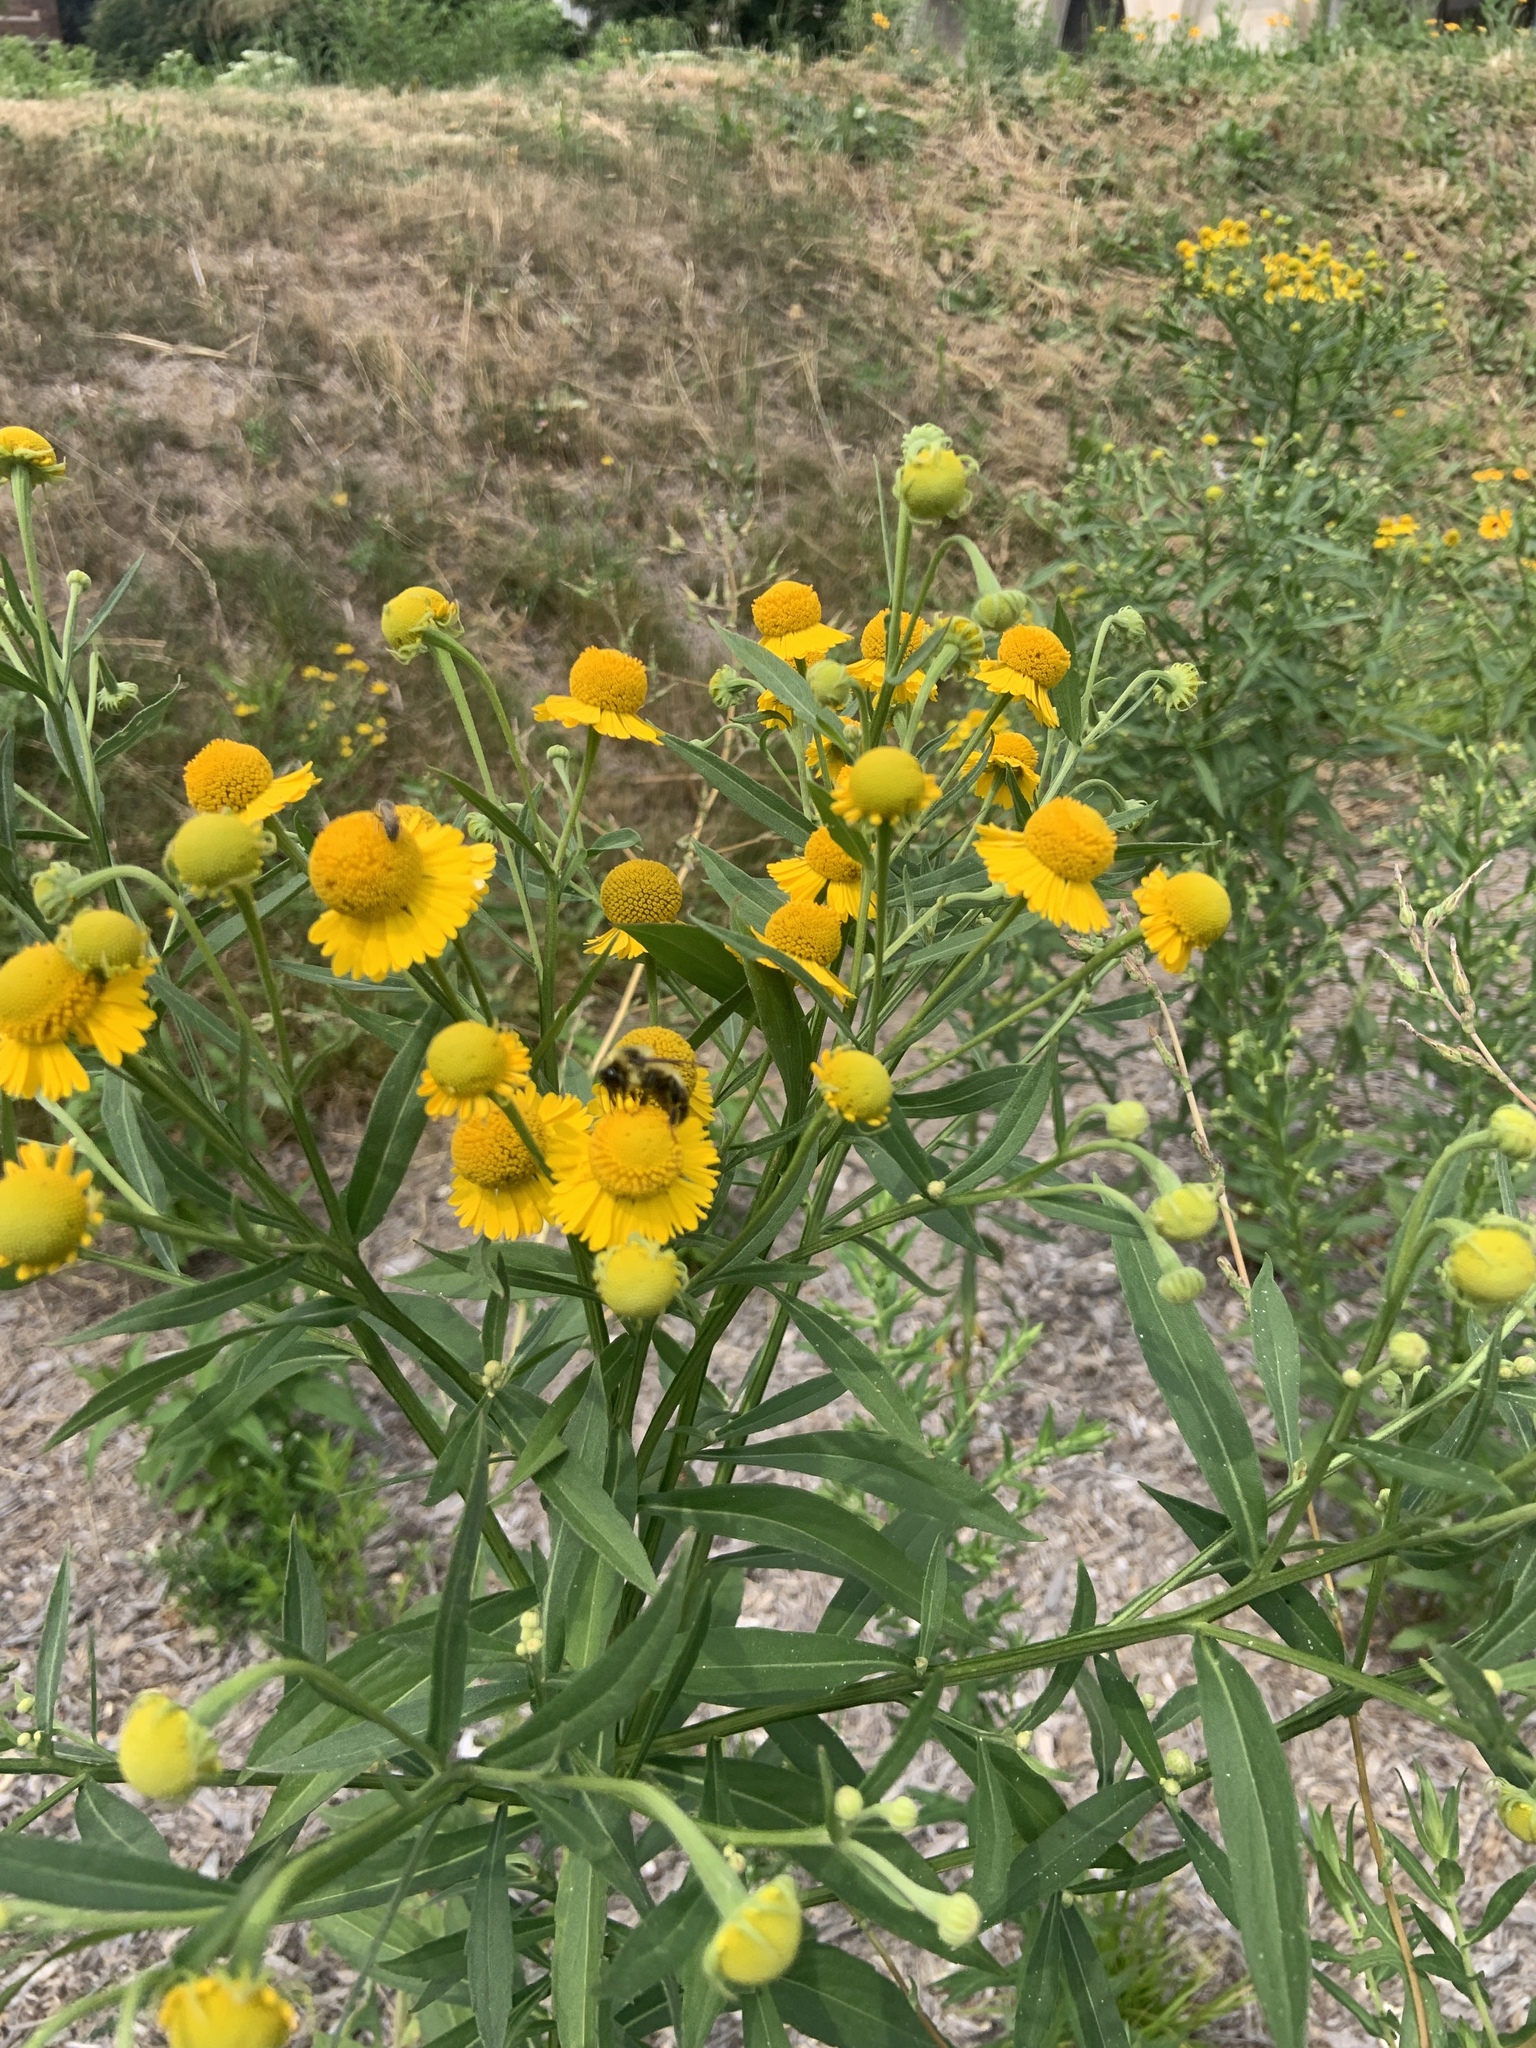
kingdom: Animalia
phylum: Arthropoda
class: Insecta
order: Hymenoptera
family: Apidae
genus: Bombus
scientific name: Bombus rufocinctus
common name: Red-belted bumble bee
